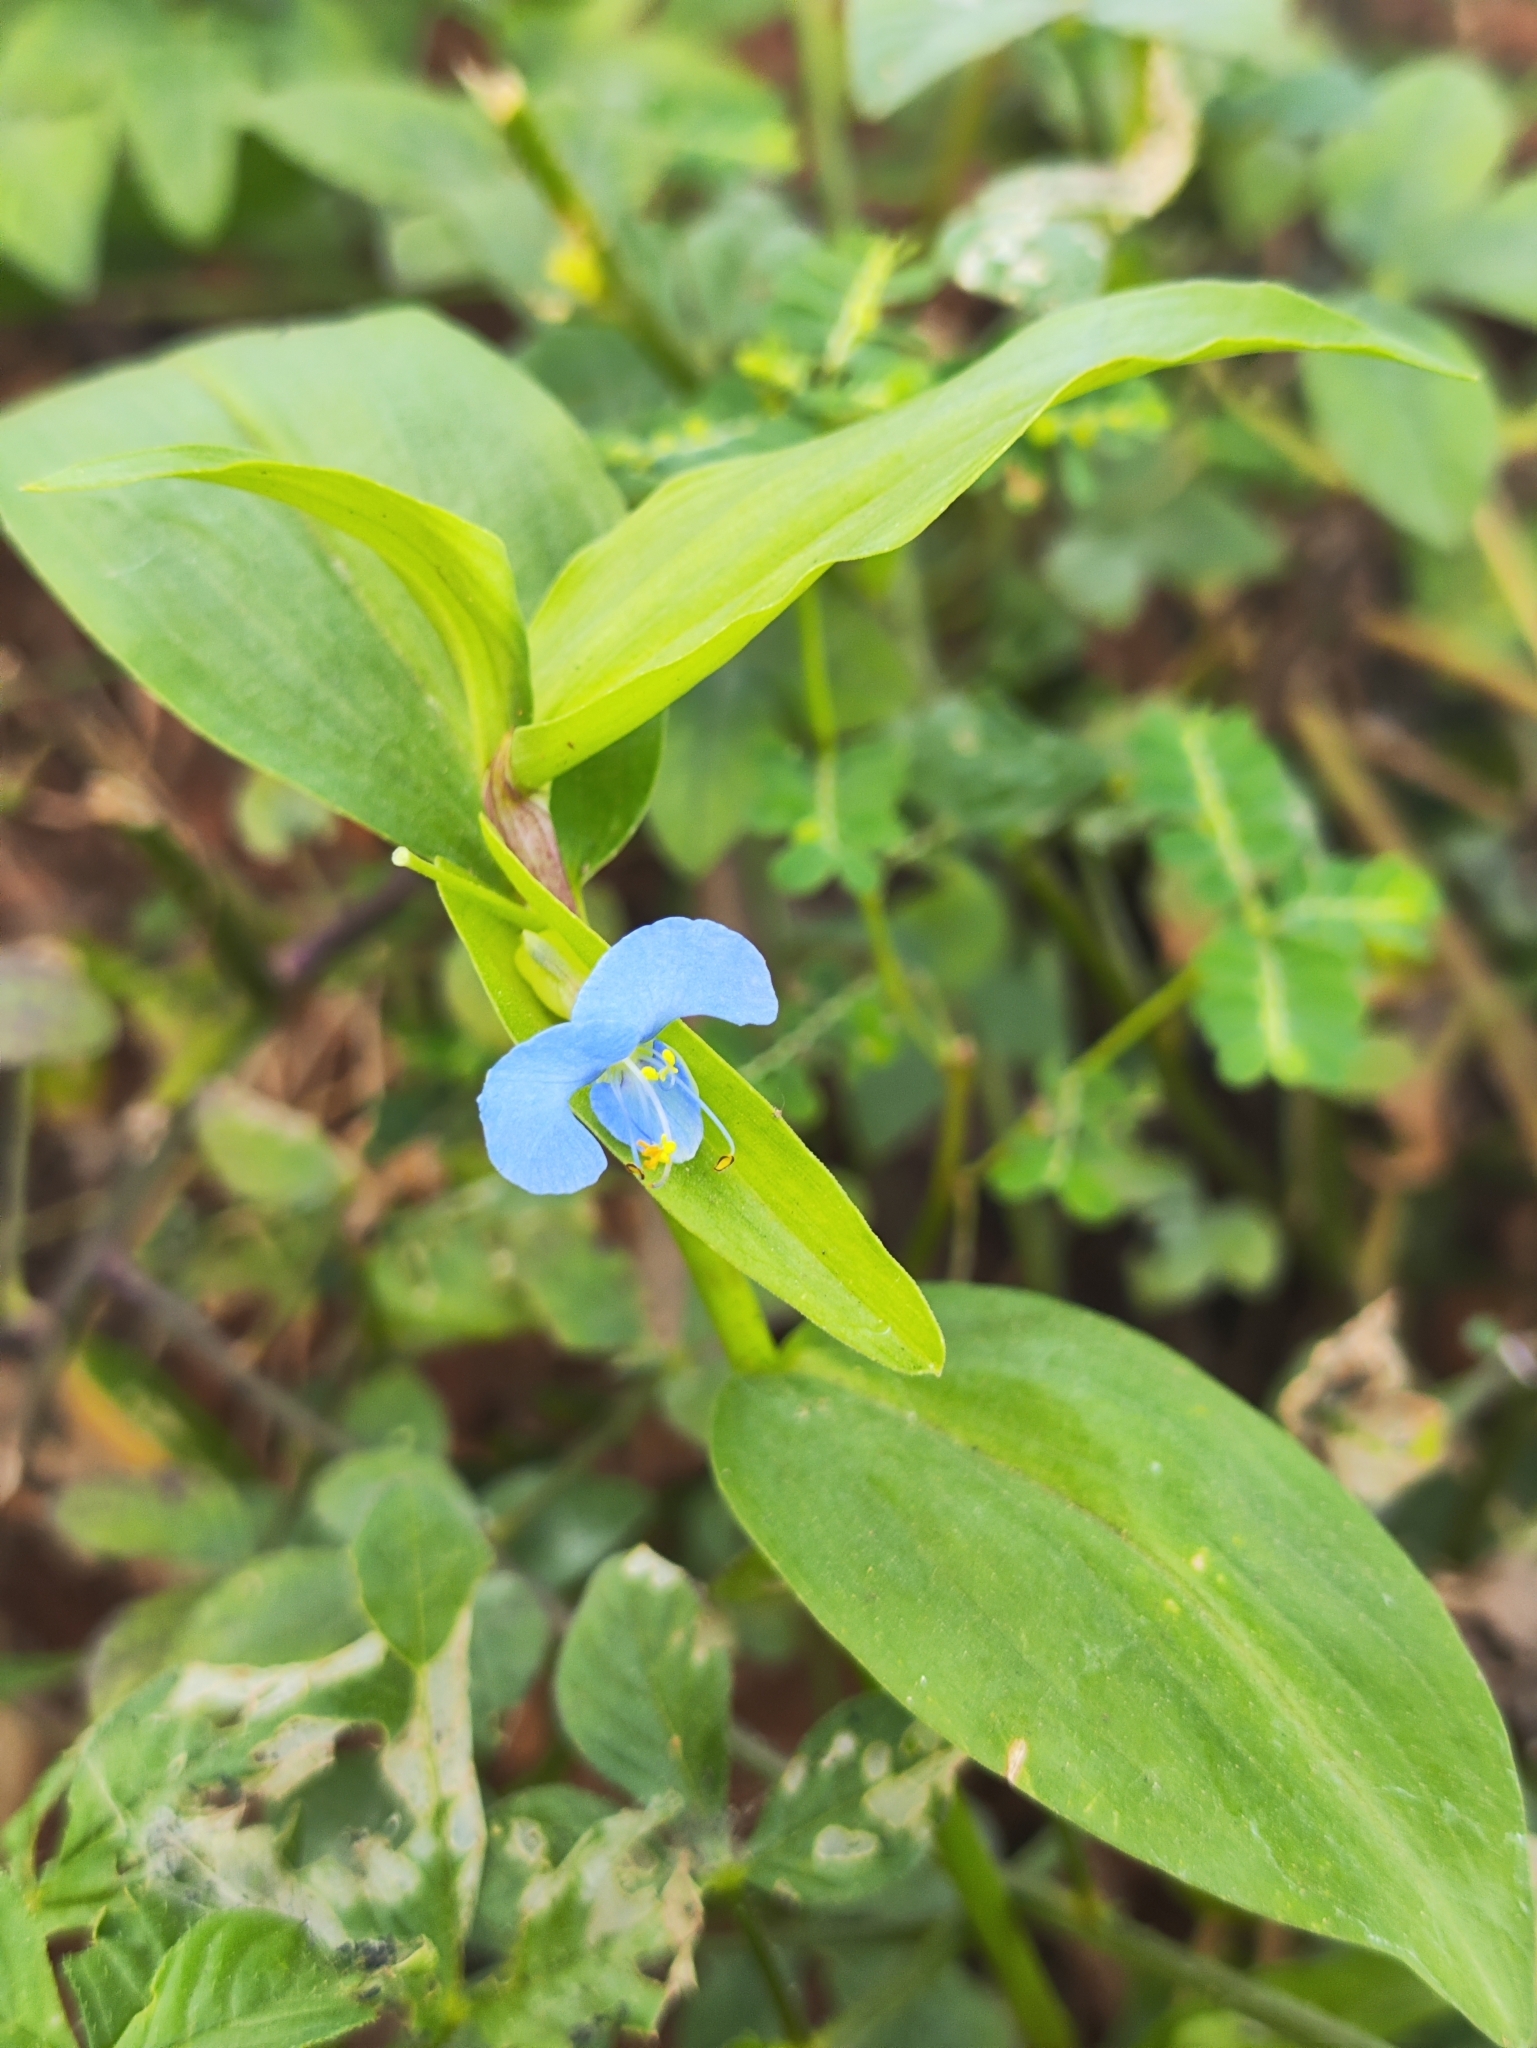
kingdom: Plantae
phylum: Tracheophyta
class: Liliopsida
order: Commelinales
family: Commelinaceae
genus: Commelina
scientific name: Commelina diffusa
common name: Climbing dayflower
